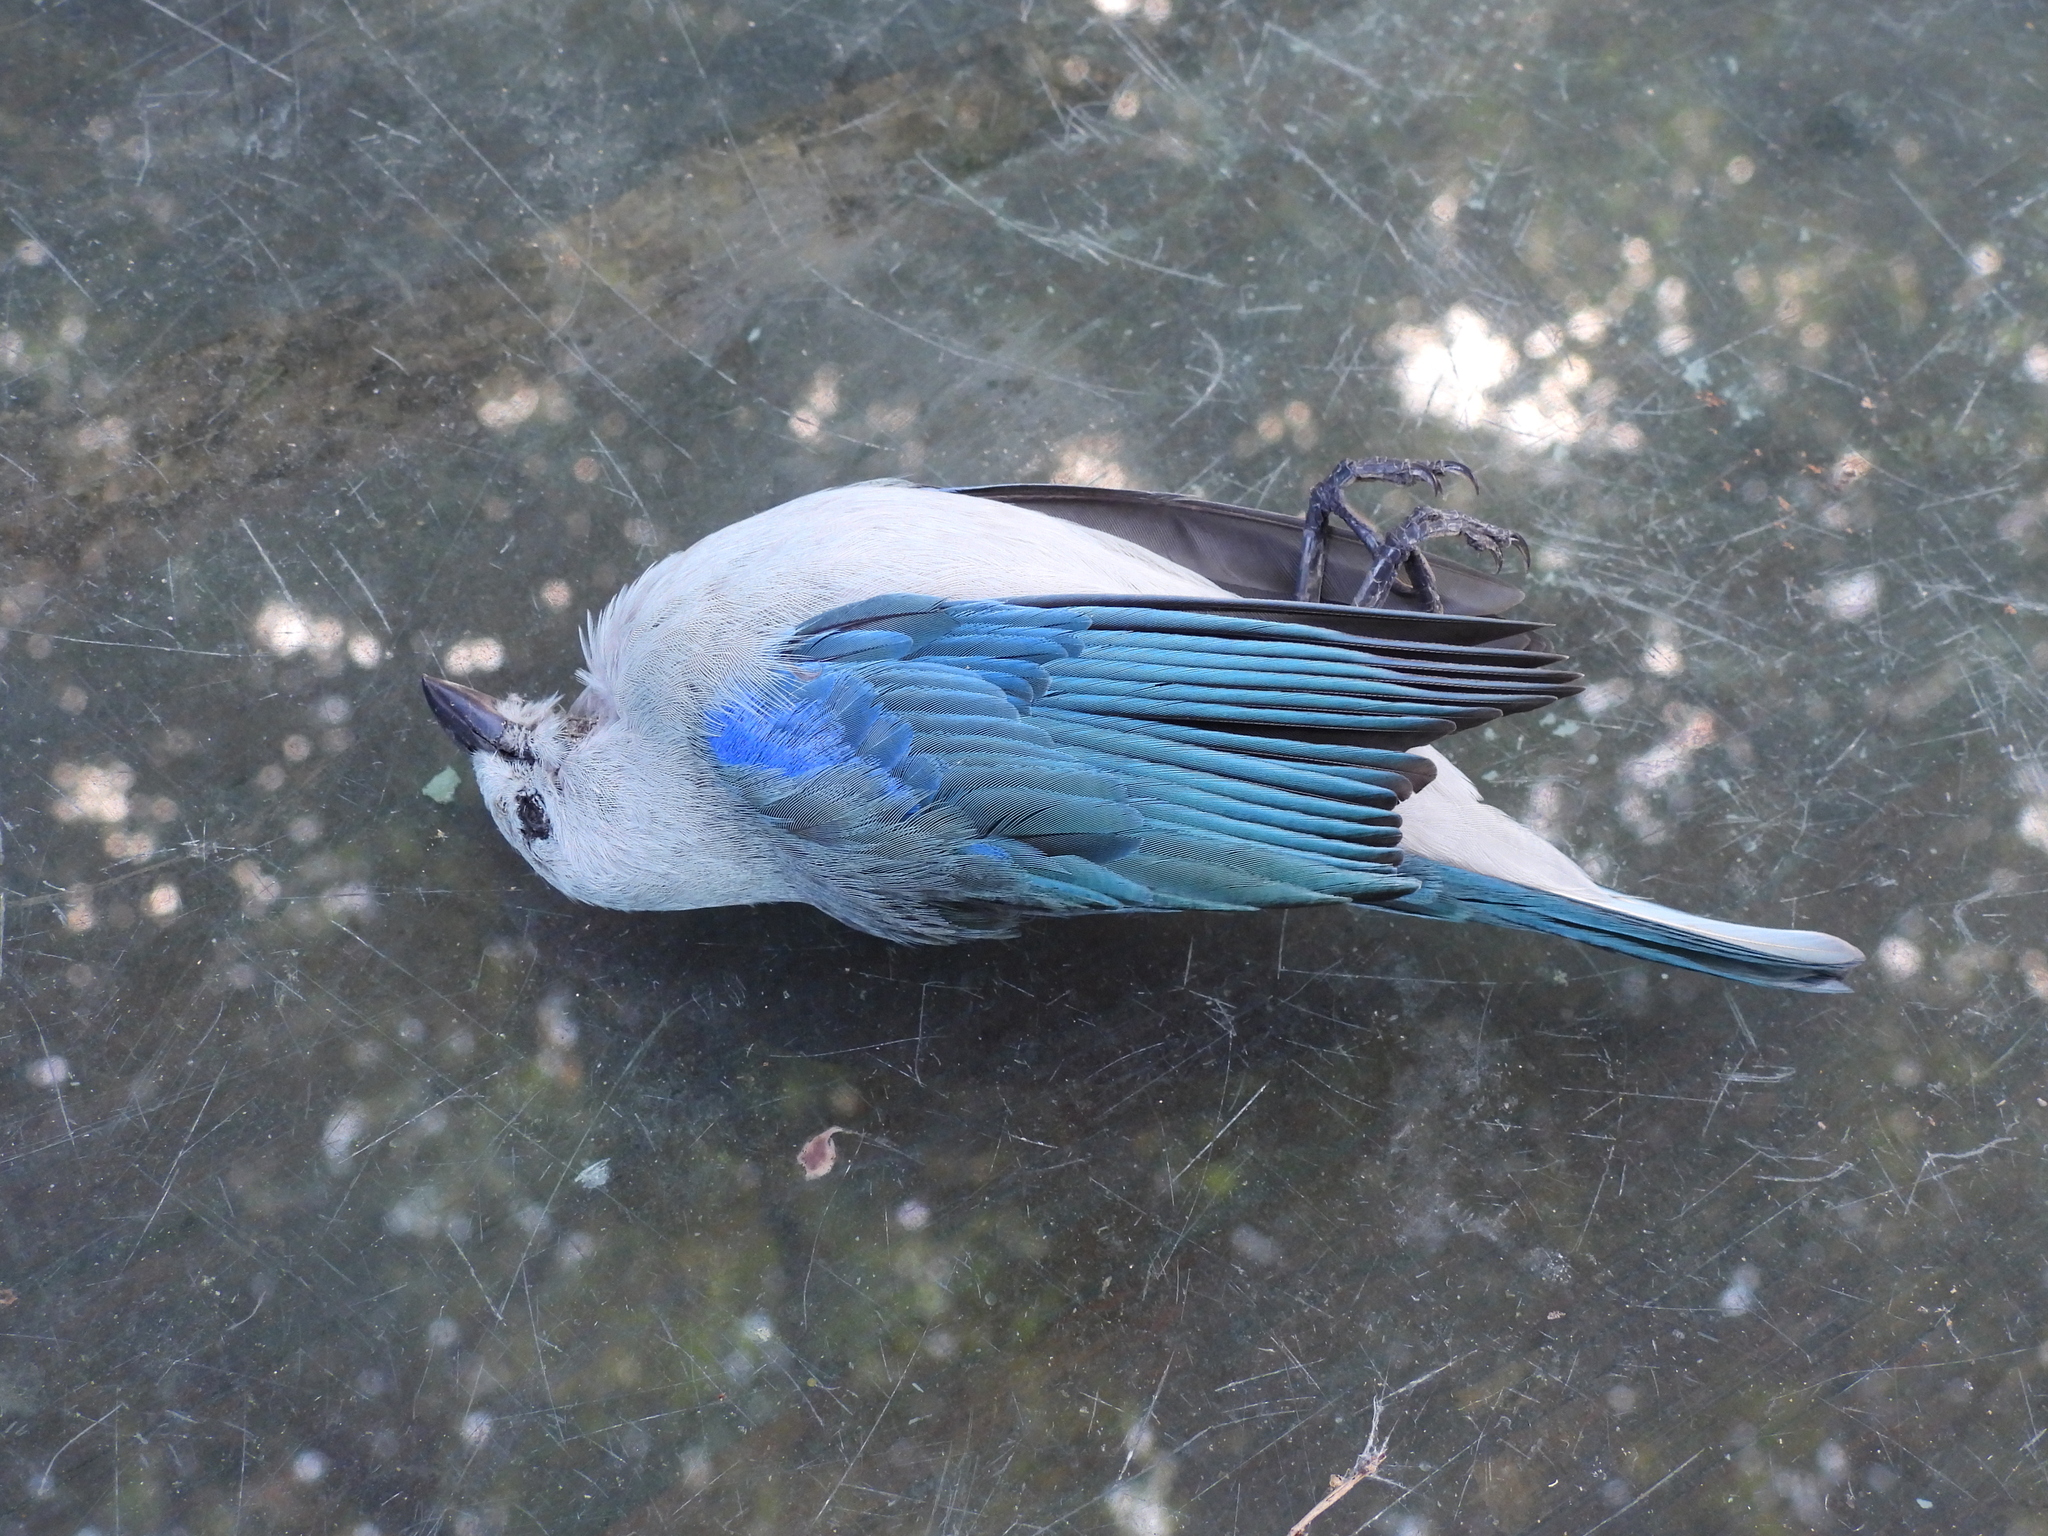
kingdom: Animalia
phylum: Chordata
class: Aves
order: Passeriformes
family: Thraupidae
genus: Thraupis
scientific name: Thraupis episcopus
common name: Blue-grey tanager
